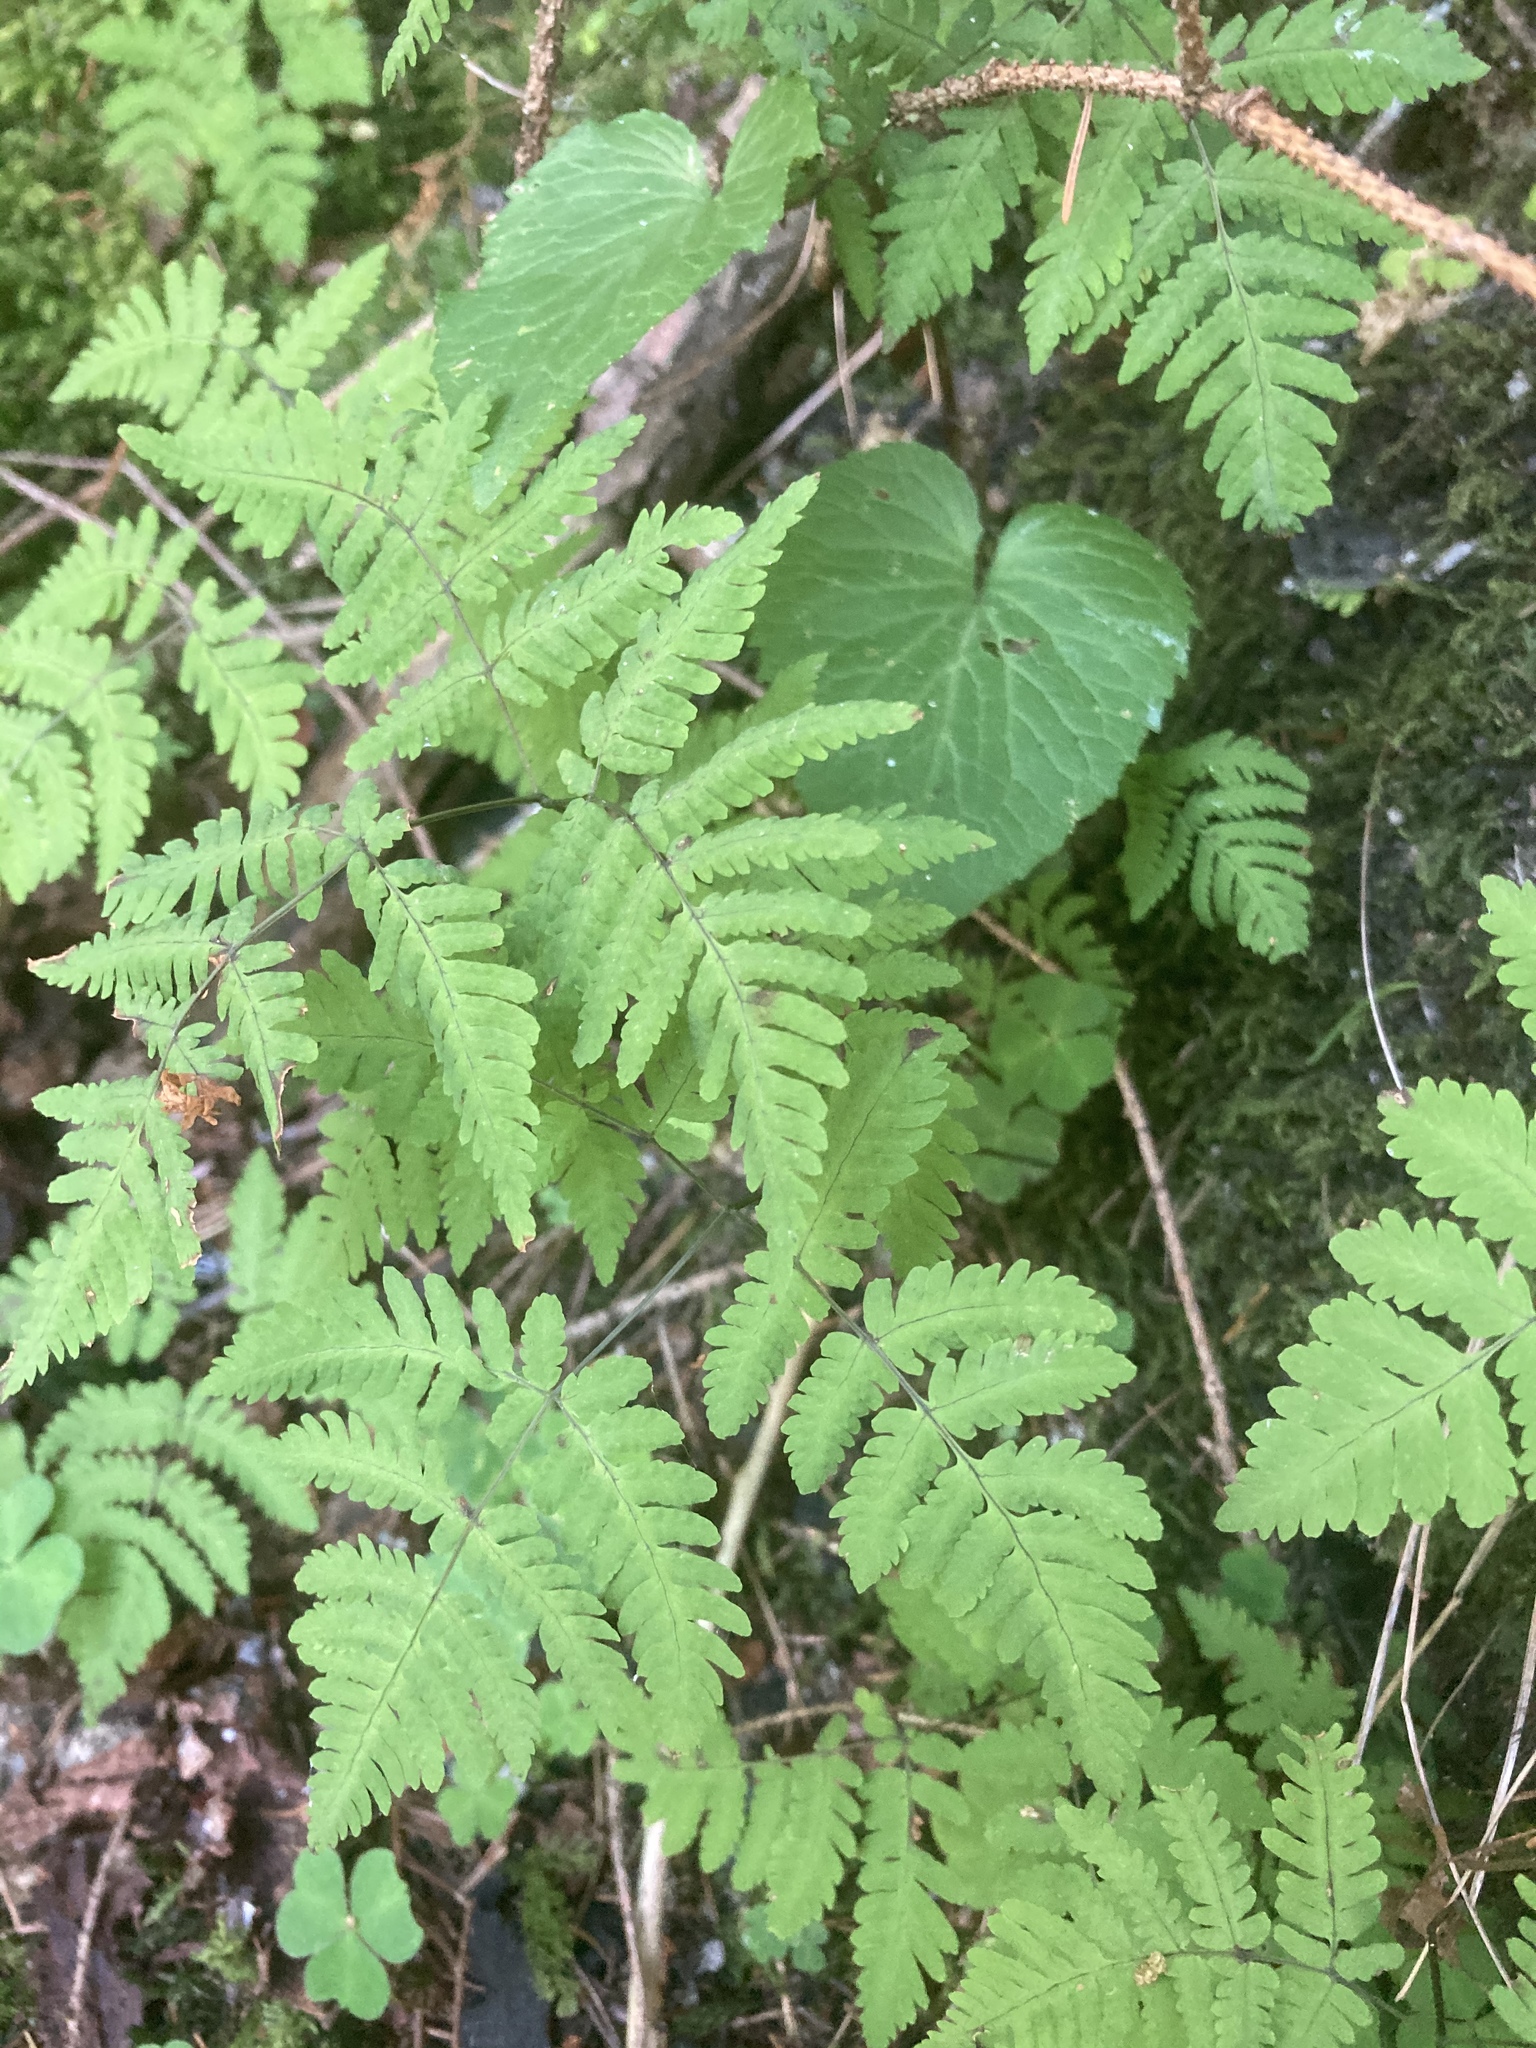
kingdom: Plantae
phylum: Tracheophyta
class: Polypodiopsida
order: Polypodiales
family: Cystopteridaceae
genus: Gymnocarpium
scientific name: Gymnocarpium dryopteris
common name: Oak fern
